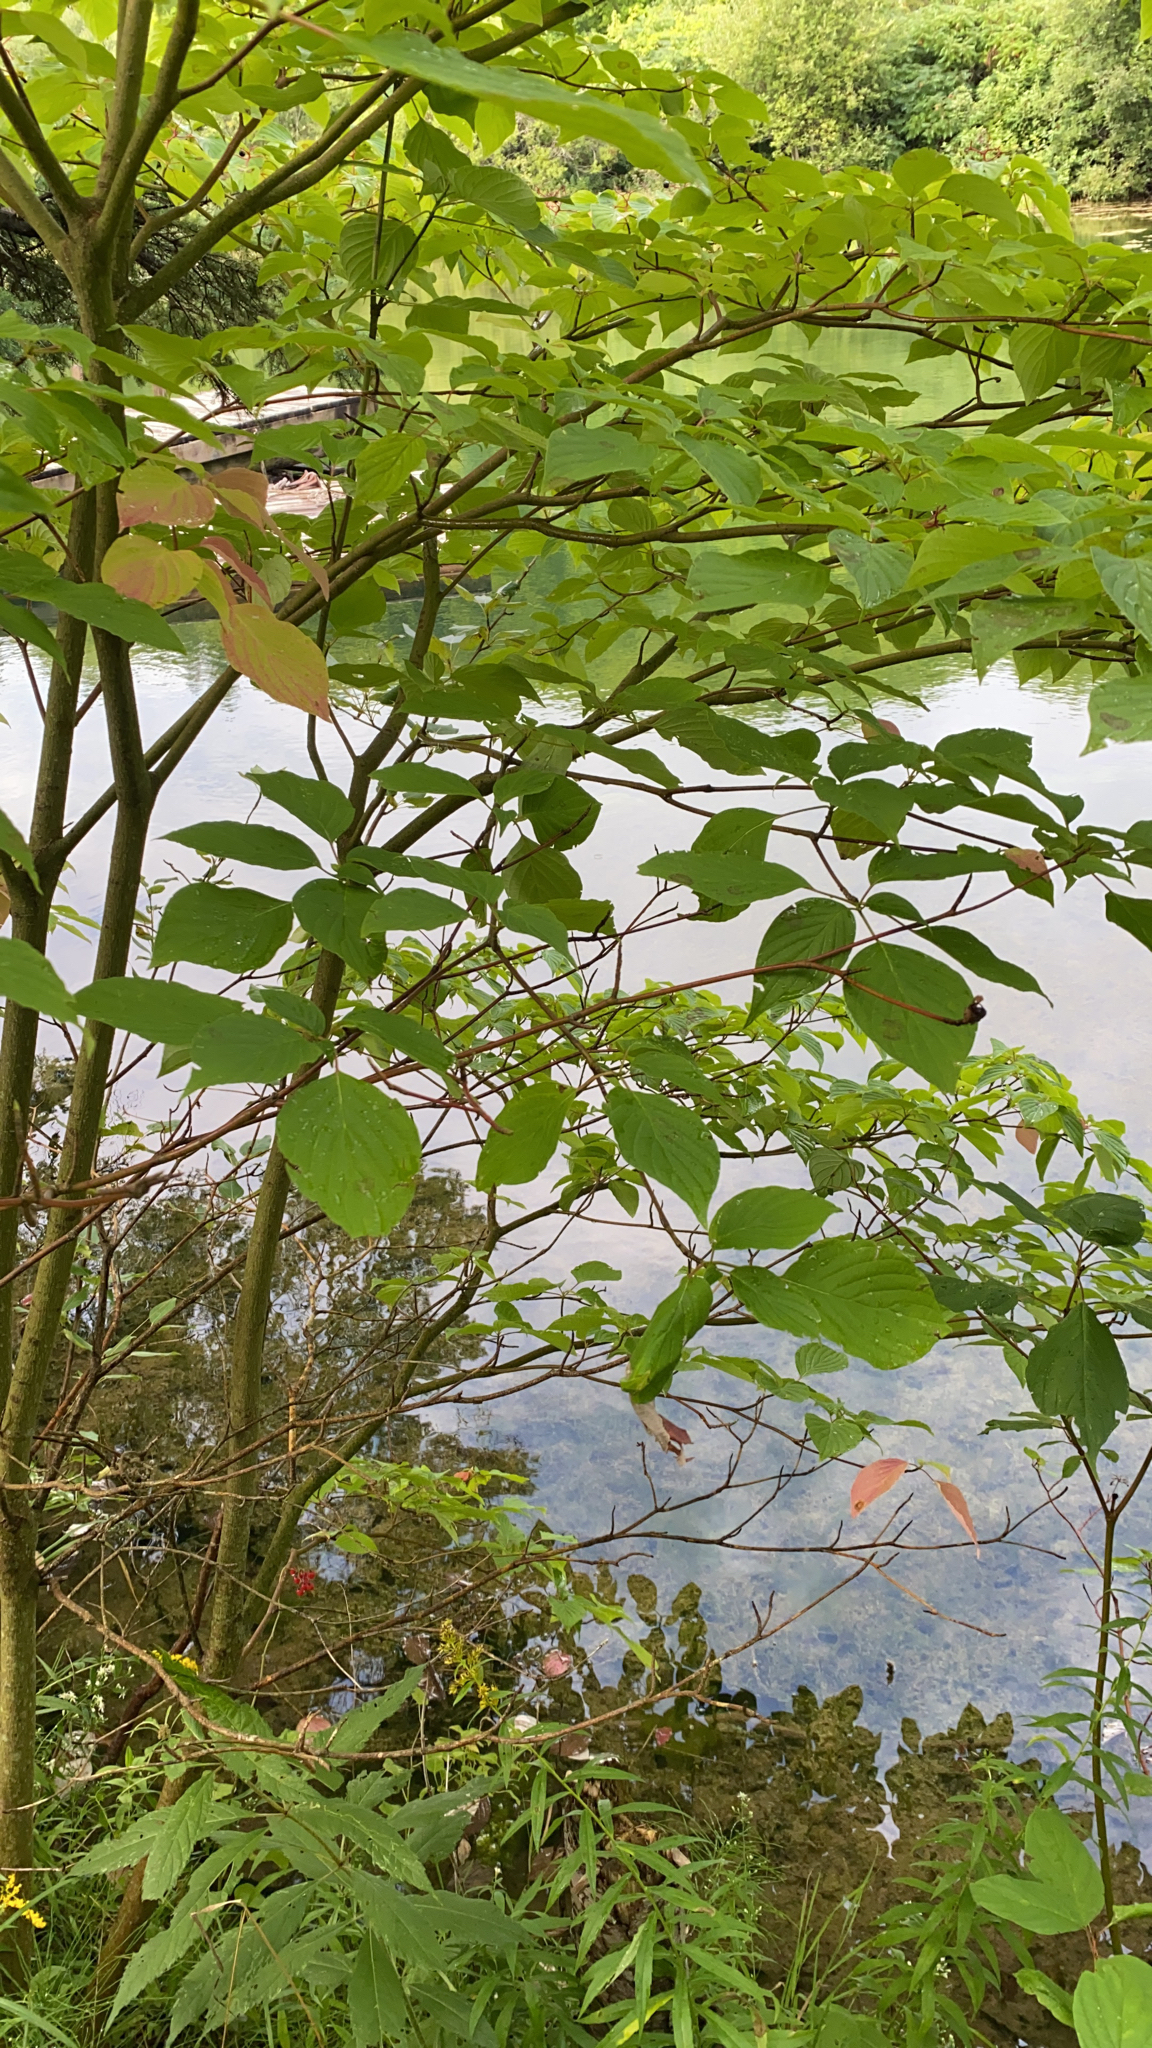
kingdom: Plantae
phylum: Tracheophyta
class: Magnoliopsida
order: Cornales
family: Cornaceae
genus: Cornus
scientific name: Cornus alternifolia
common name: Pagoda dogwood
